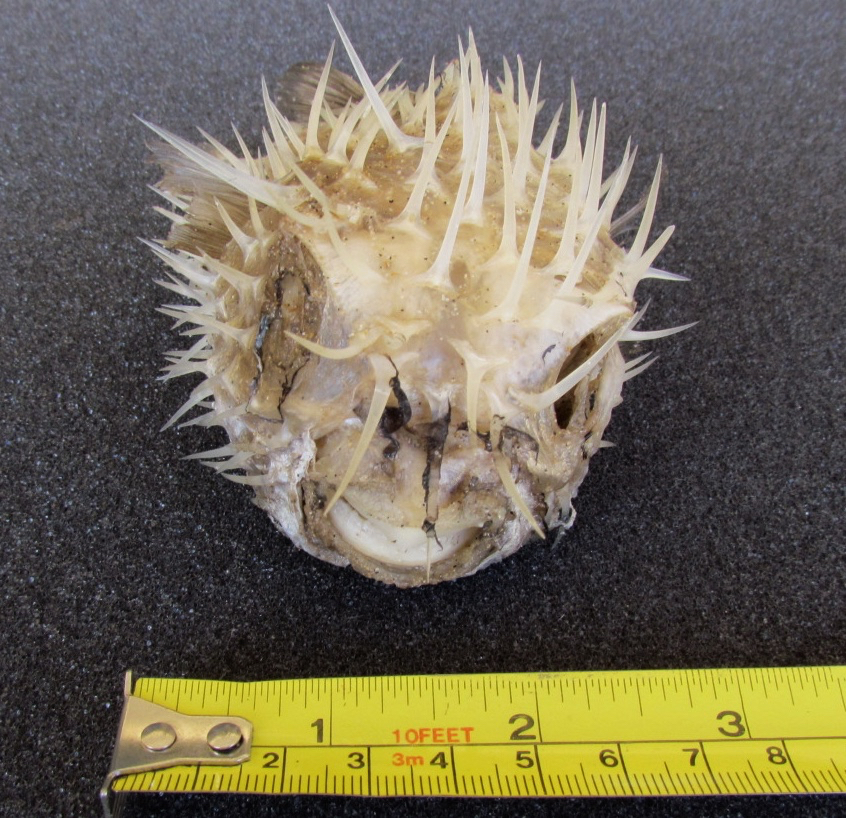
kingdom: Animalia
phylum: Chordata
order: Tetraodontiformes
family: Diodontidae
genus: Diodon
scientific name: Diodon nicthemerus
